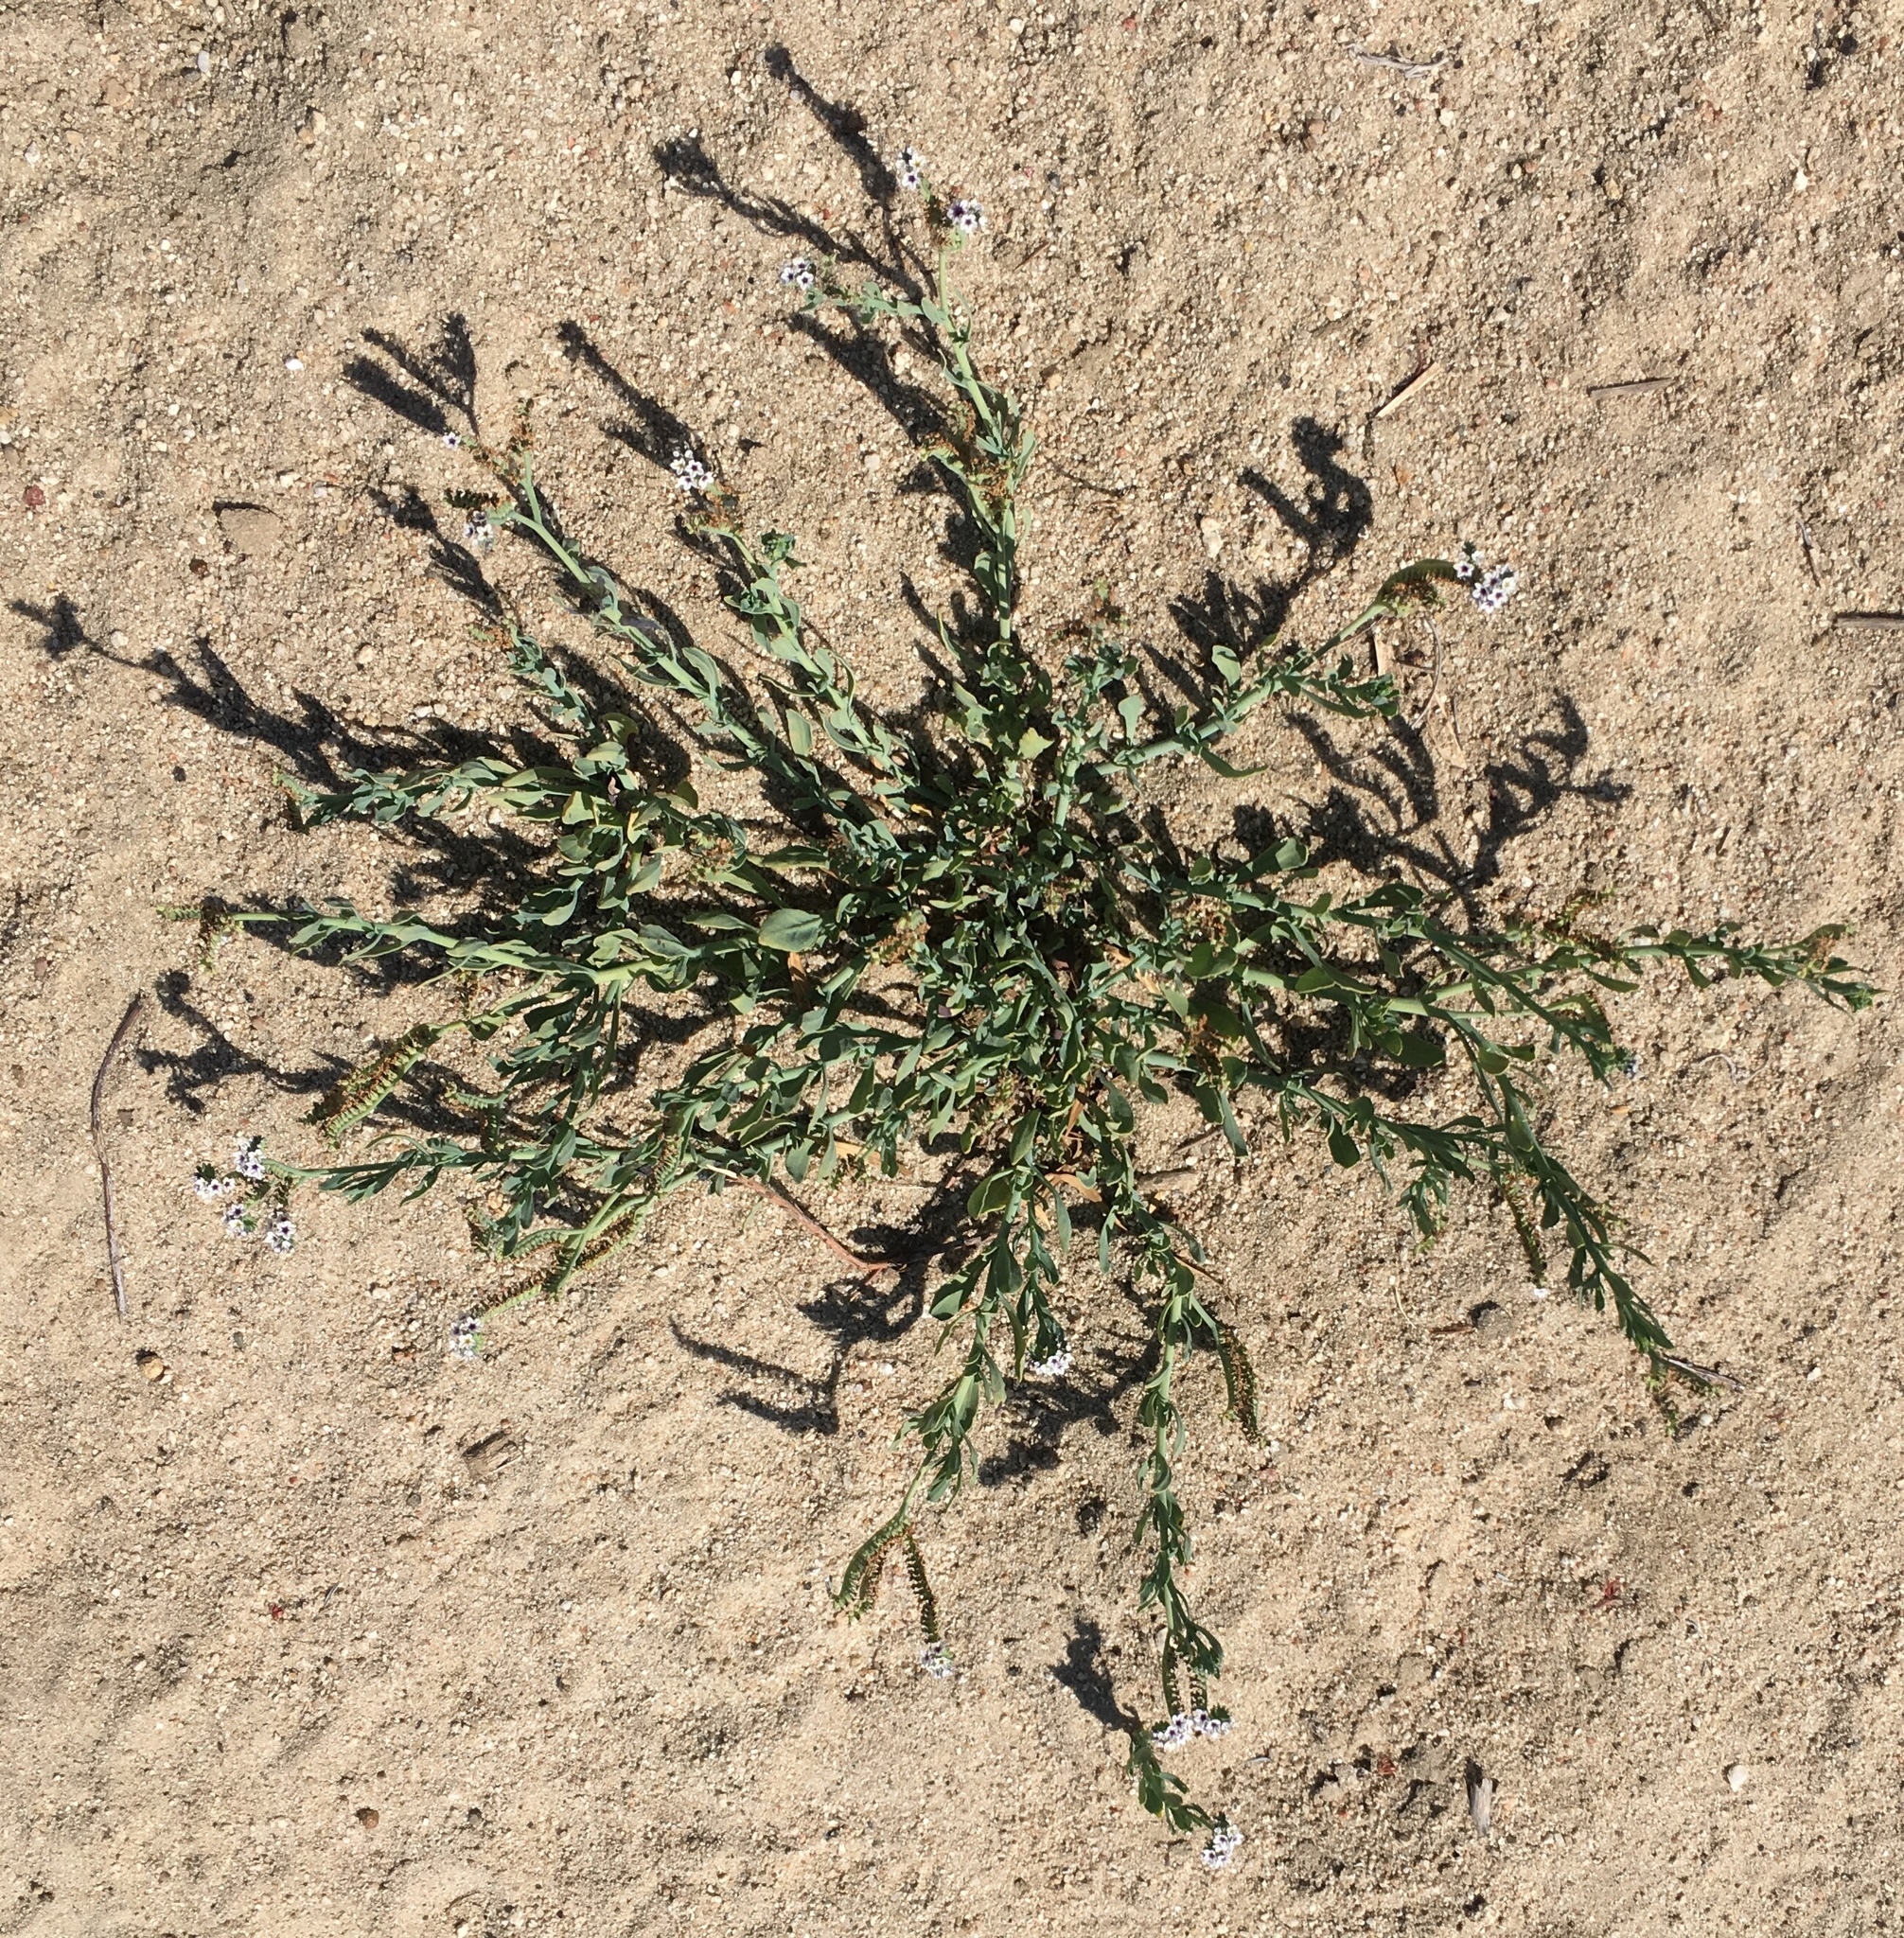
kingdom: Plantae
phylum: Tracheophyta
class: Magnoliopsida
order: Boraginales
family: Heliotropiaceae
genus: Heliotropium
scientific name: Heliotropium curassavicum
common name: Seaside heliotrope
